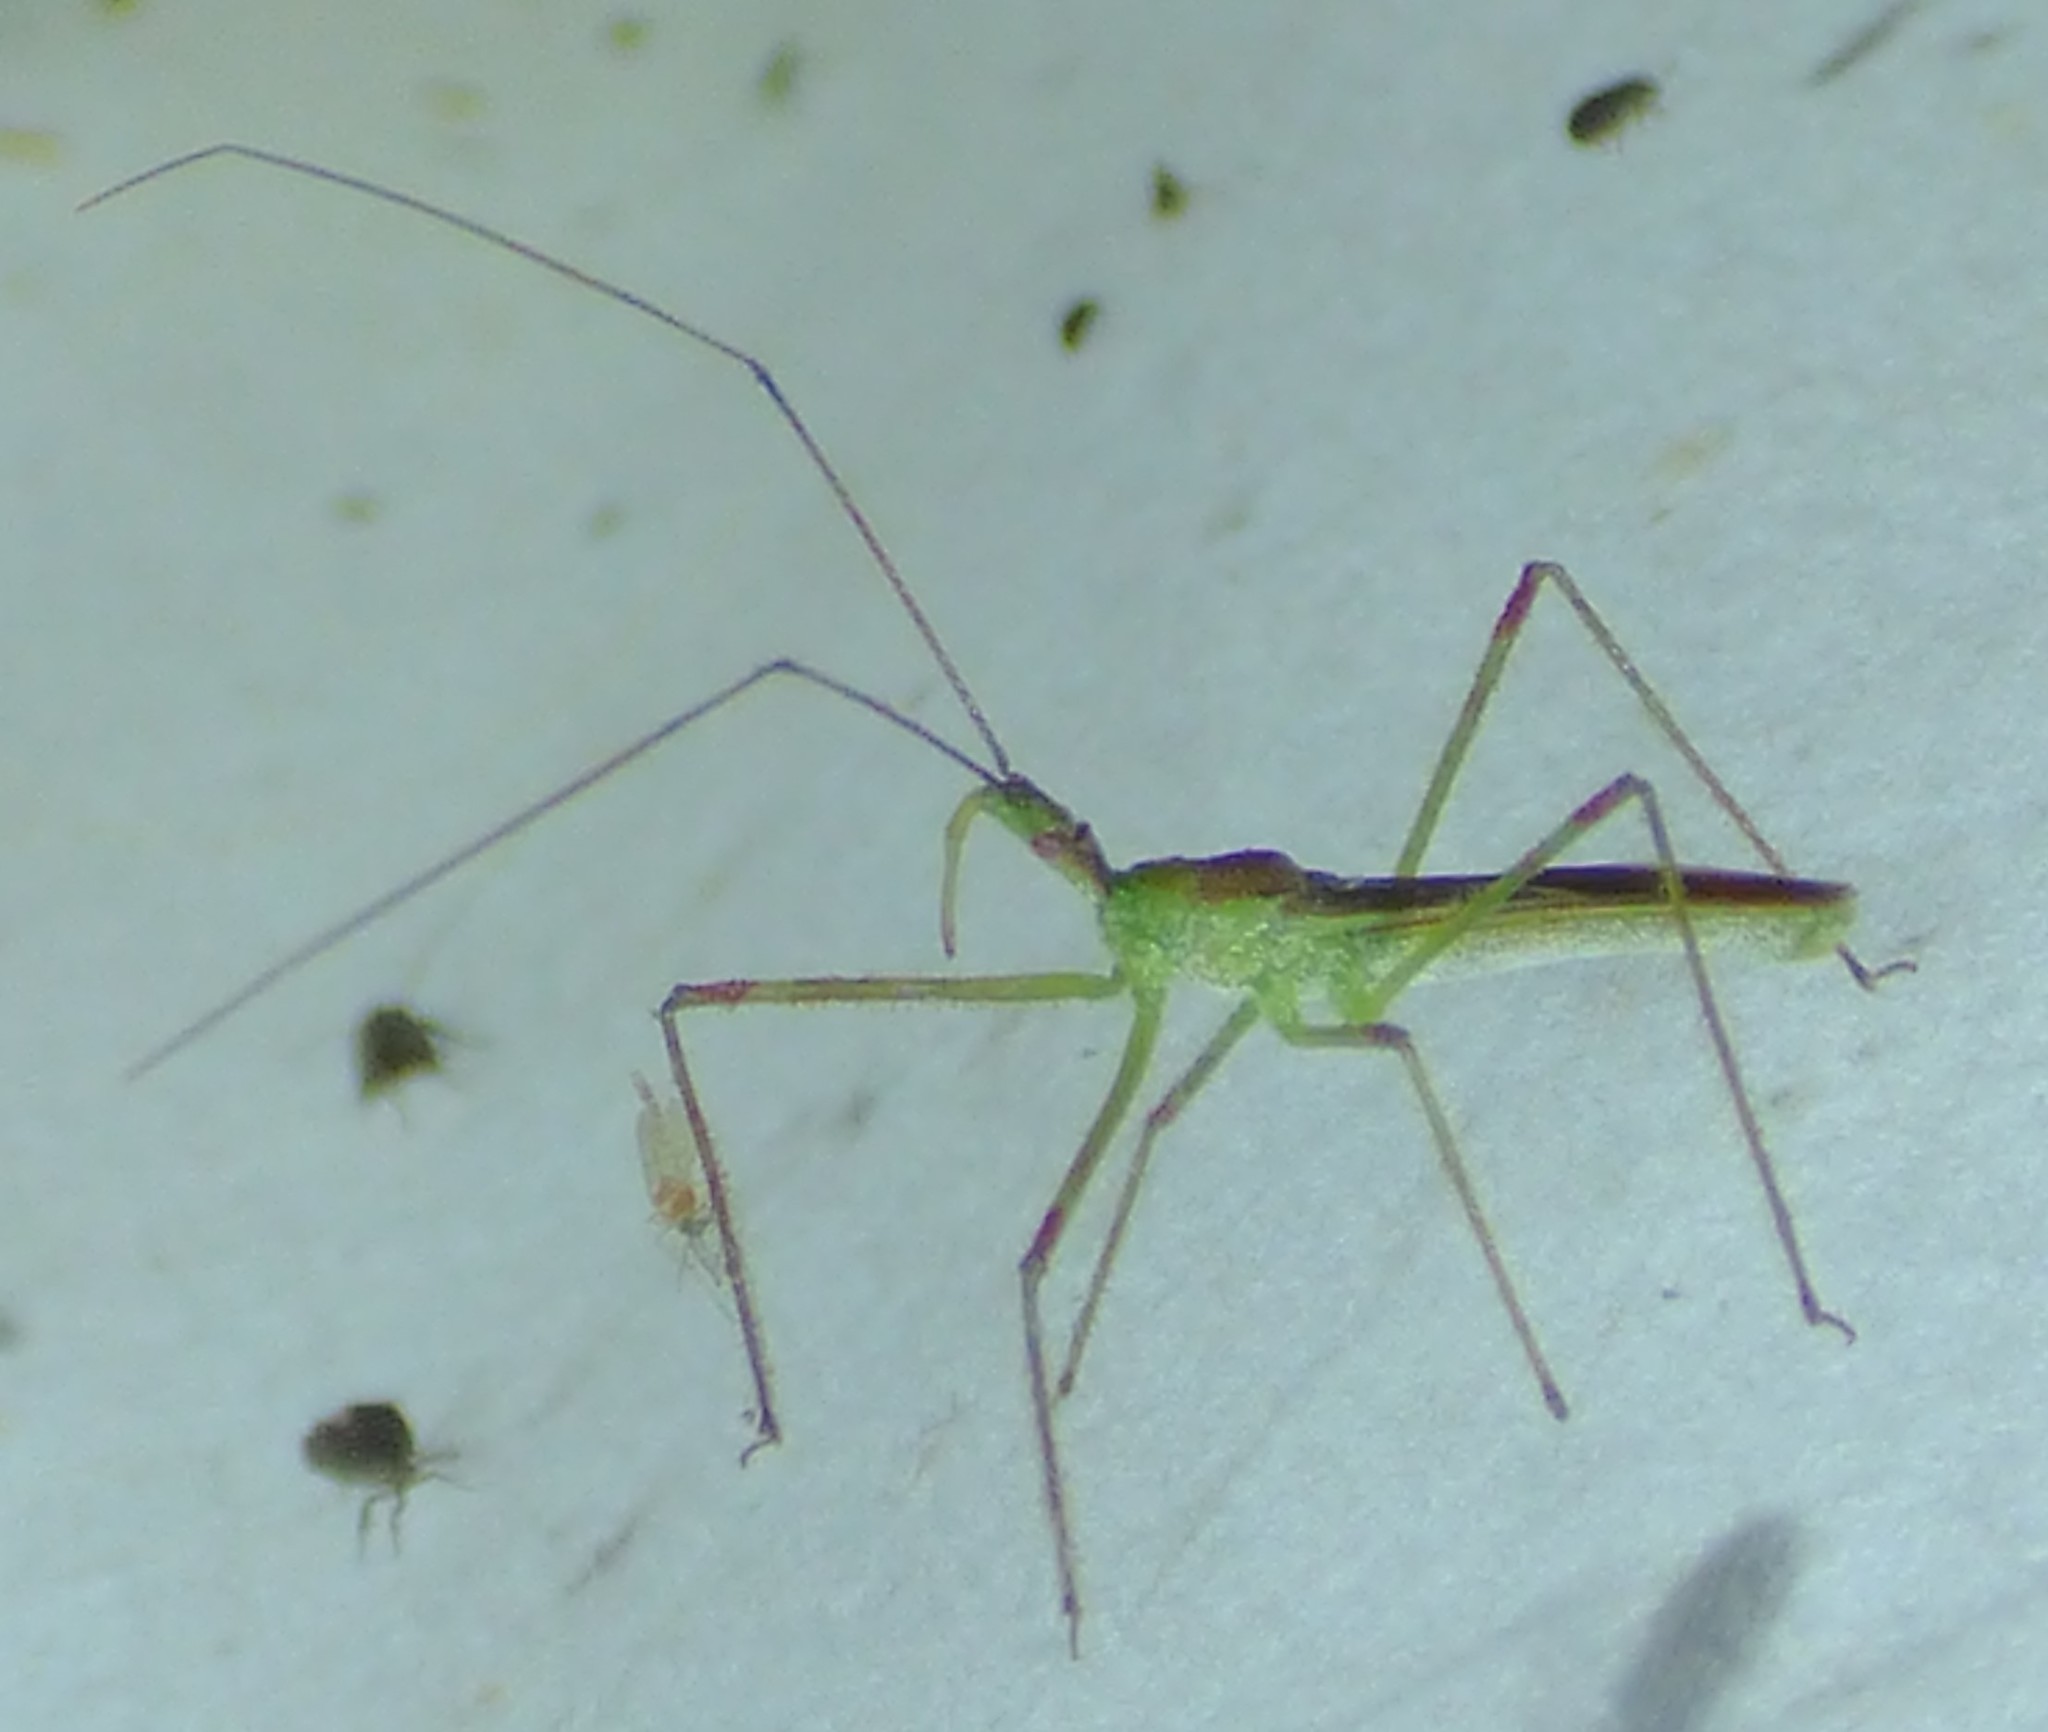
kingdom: Animalia
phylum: Arthropoda
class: Insecta
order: Hemiptera
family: Reduviidae
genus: Zelus
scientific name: Zelus luridus
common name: Pale green assassin bug
